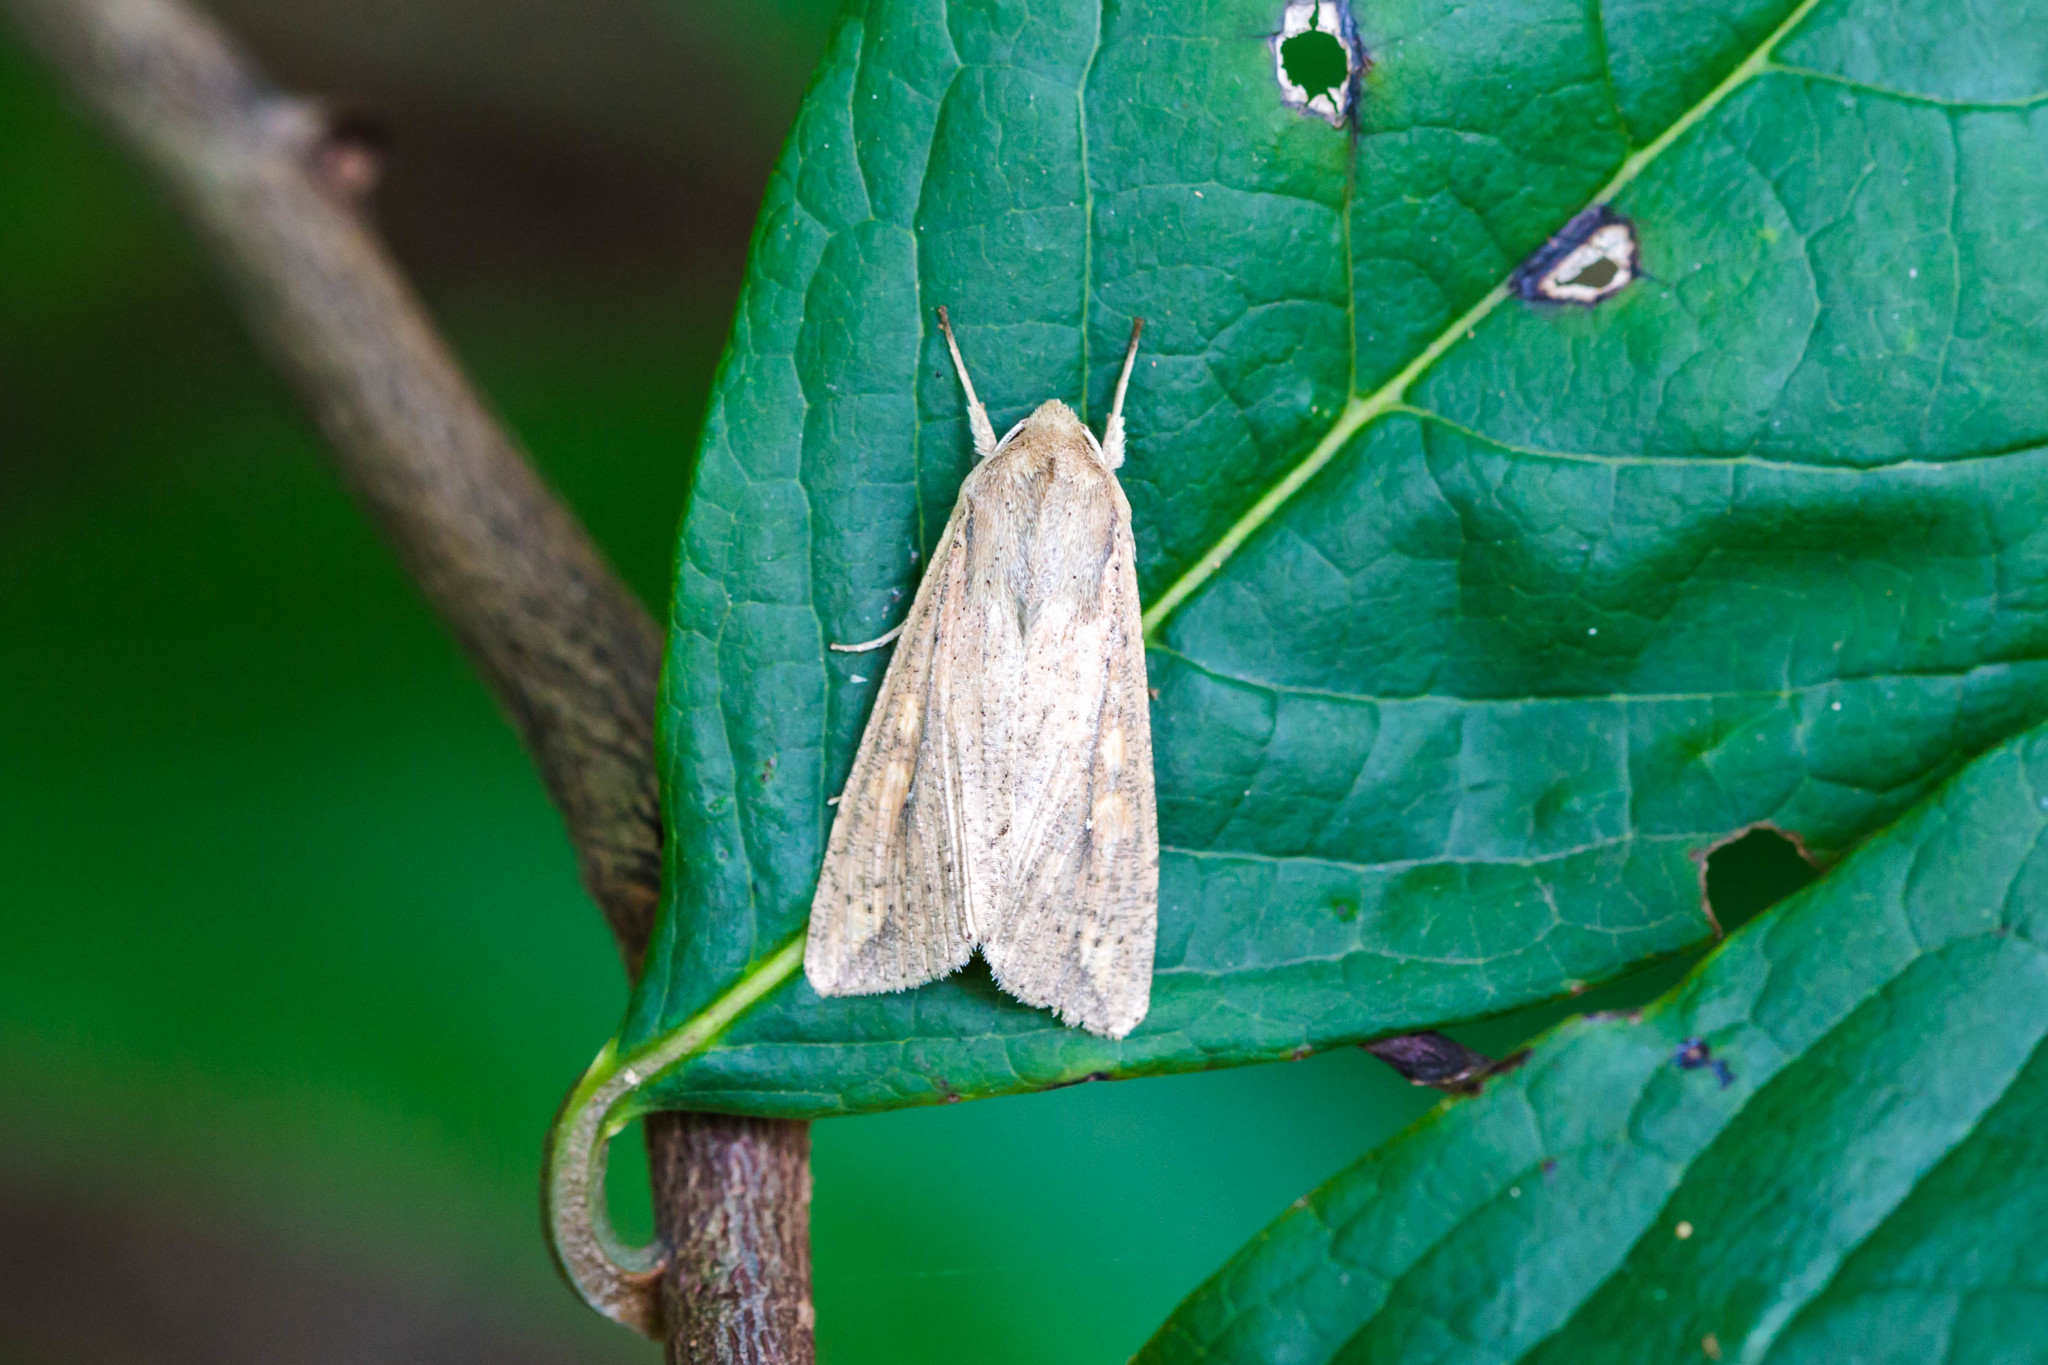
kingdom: Animalia
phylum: Arthropoda
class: Insecta
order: Lepidoptera
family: Noctuidae
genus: Mythimna
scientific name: Mythimna unipuncta
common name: White-speck
